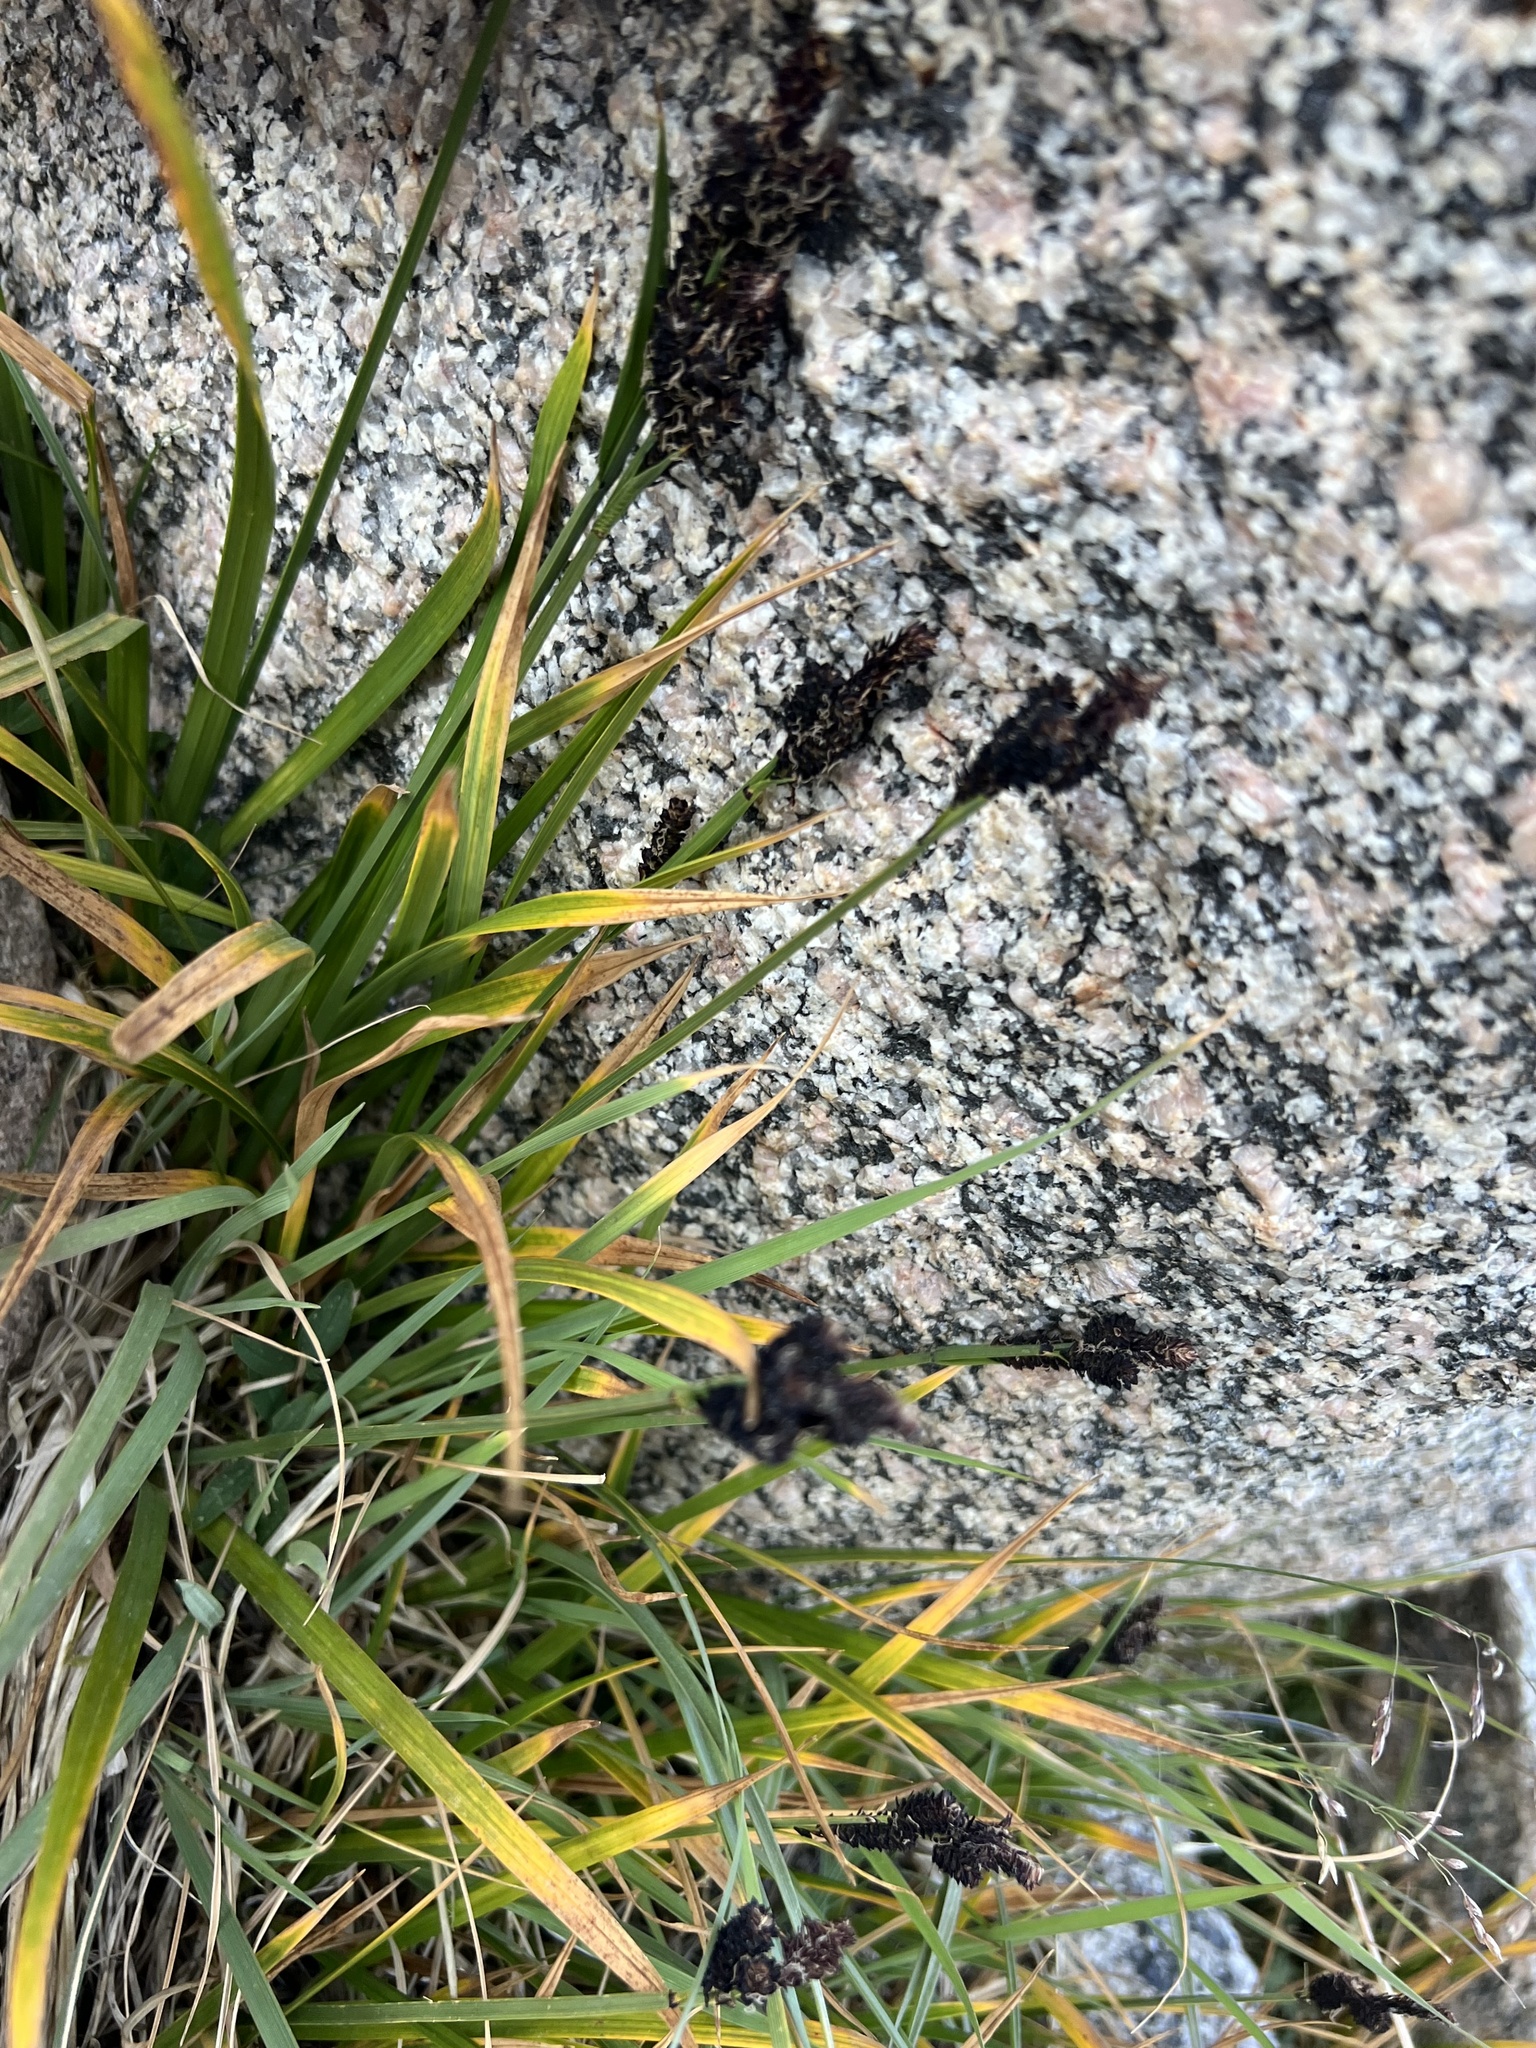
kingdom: Plantae
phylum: Tracheophyta
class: Liliopsida
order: Poales
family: Cyperaceae
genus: Carex
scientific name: Carex scopulorum
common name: Holm's rocky mountain sedge
